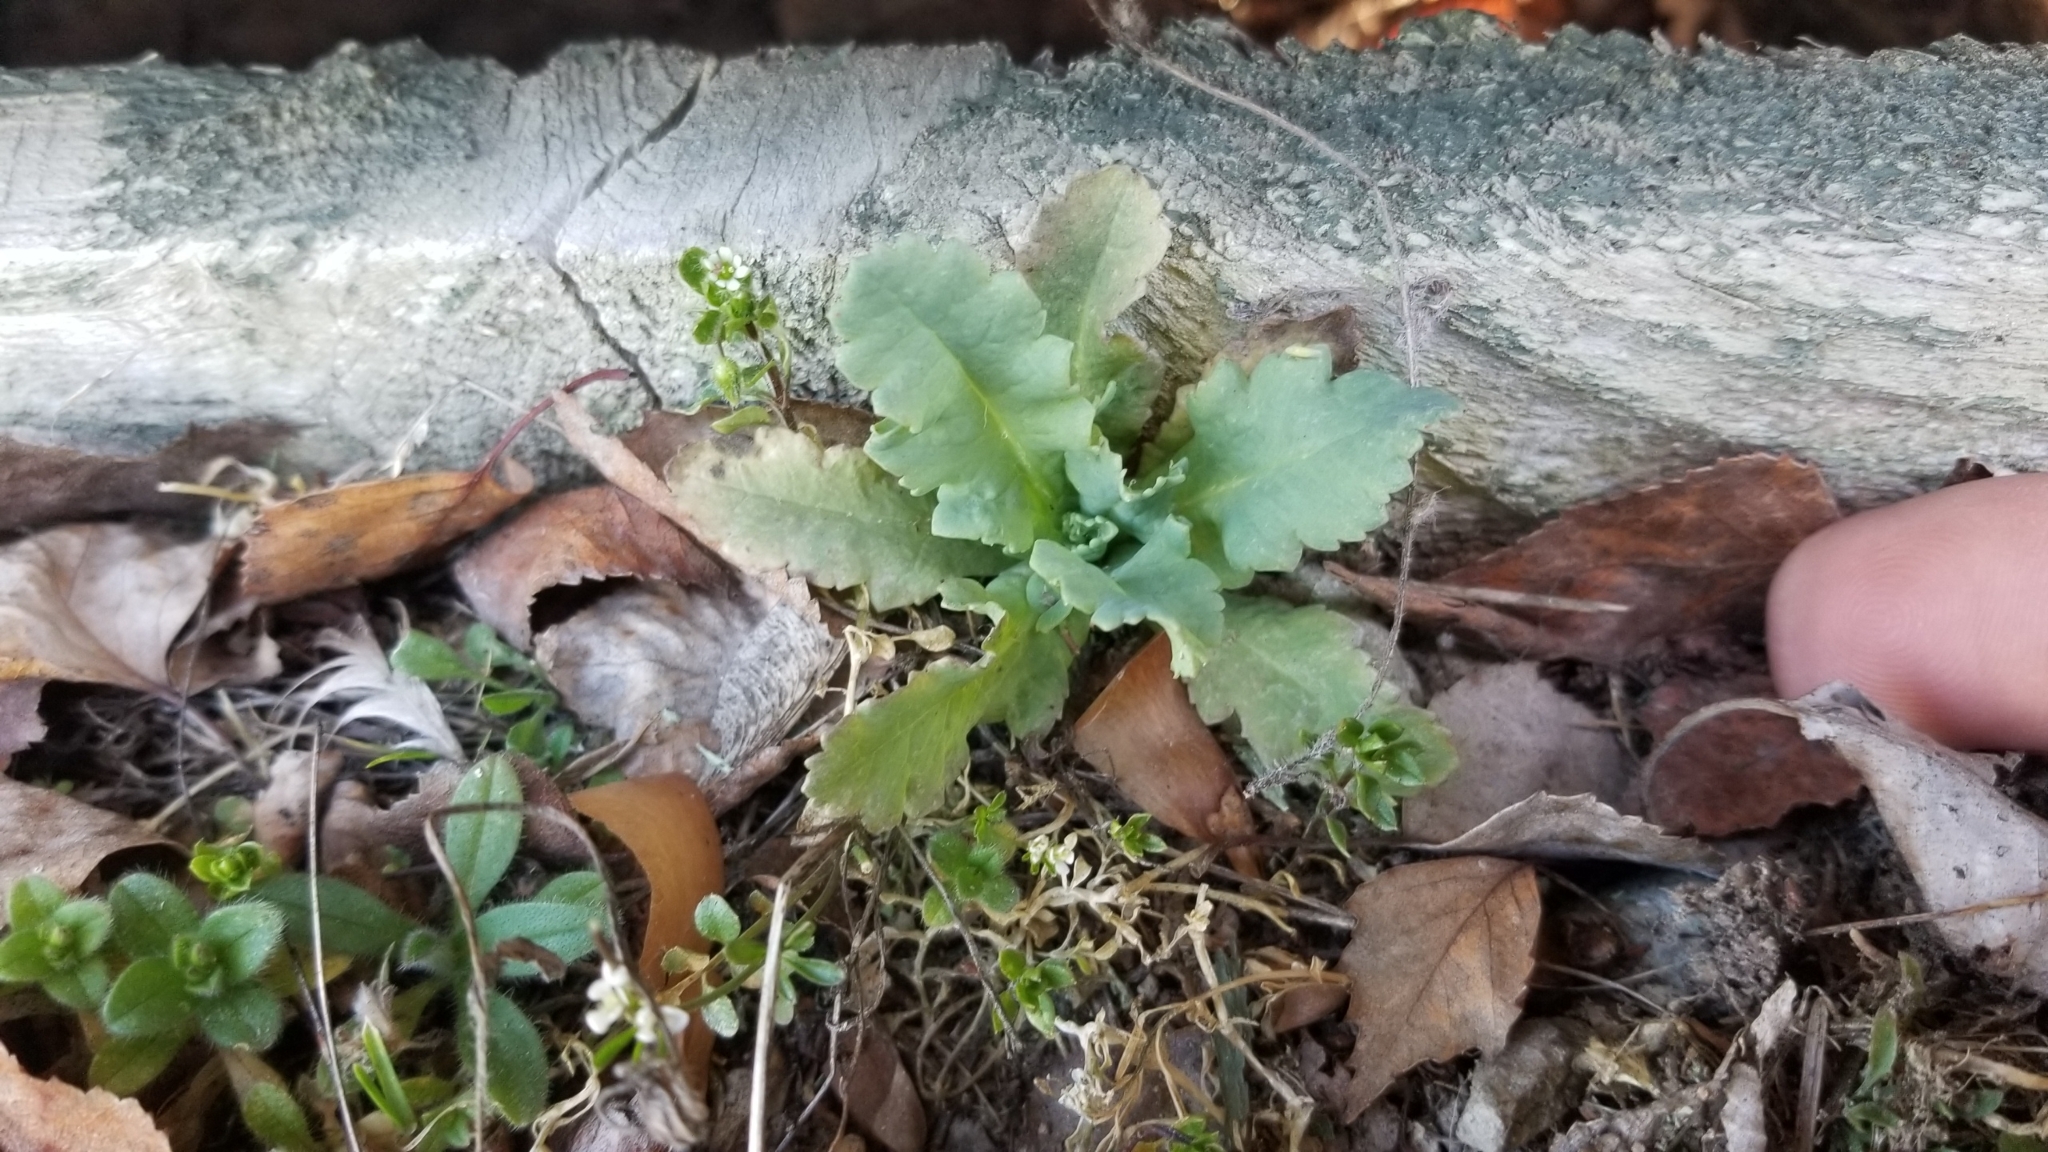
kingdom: Plantae
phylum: Tracheophyta
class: Magnoliopsida
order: Ranunculales
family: Papaveraceae
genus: Papaver
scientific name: Papaver somniferum
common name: Opium poppy
